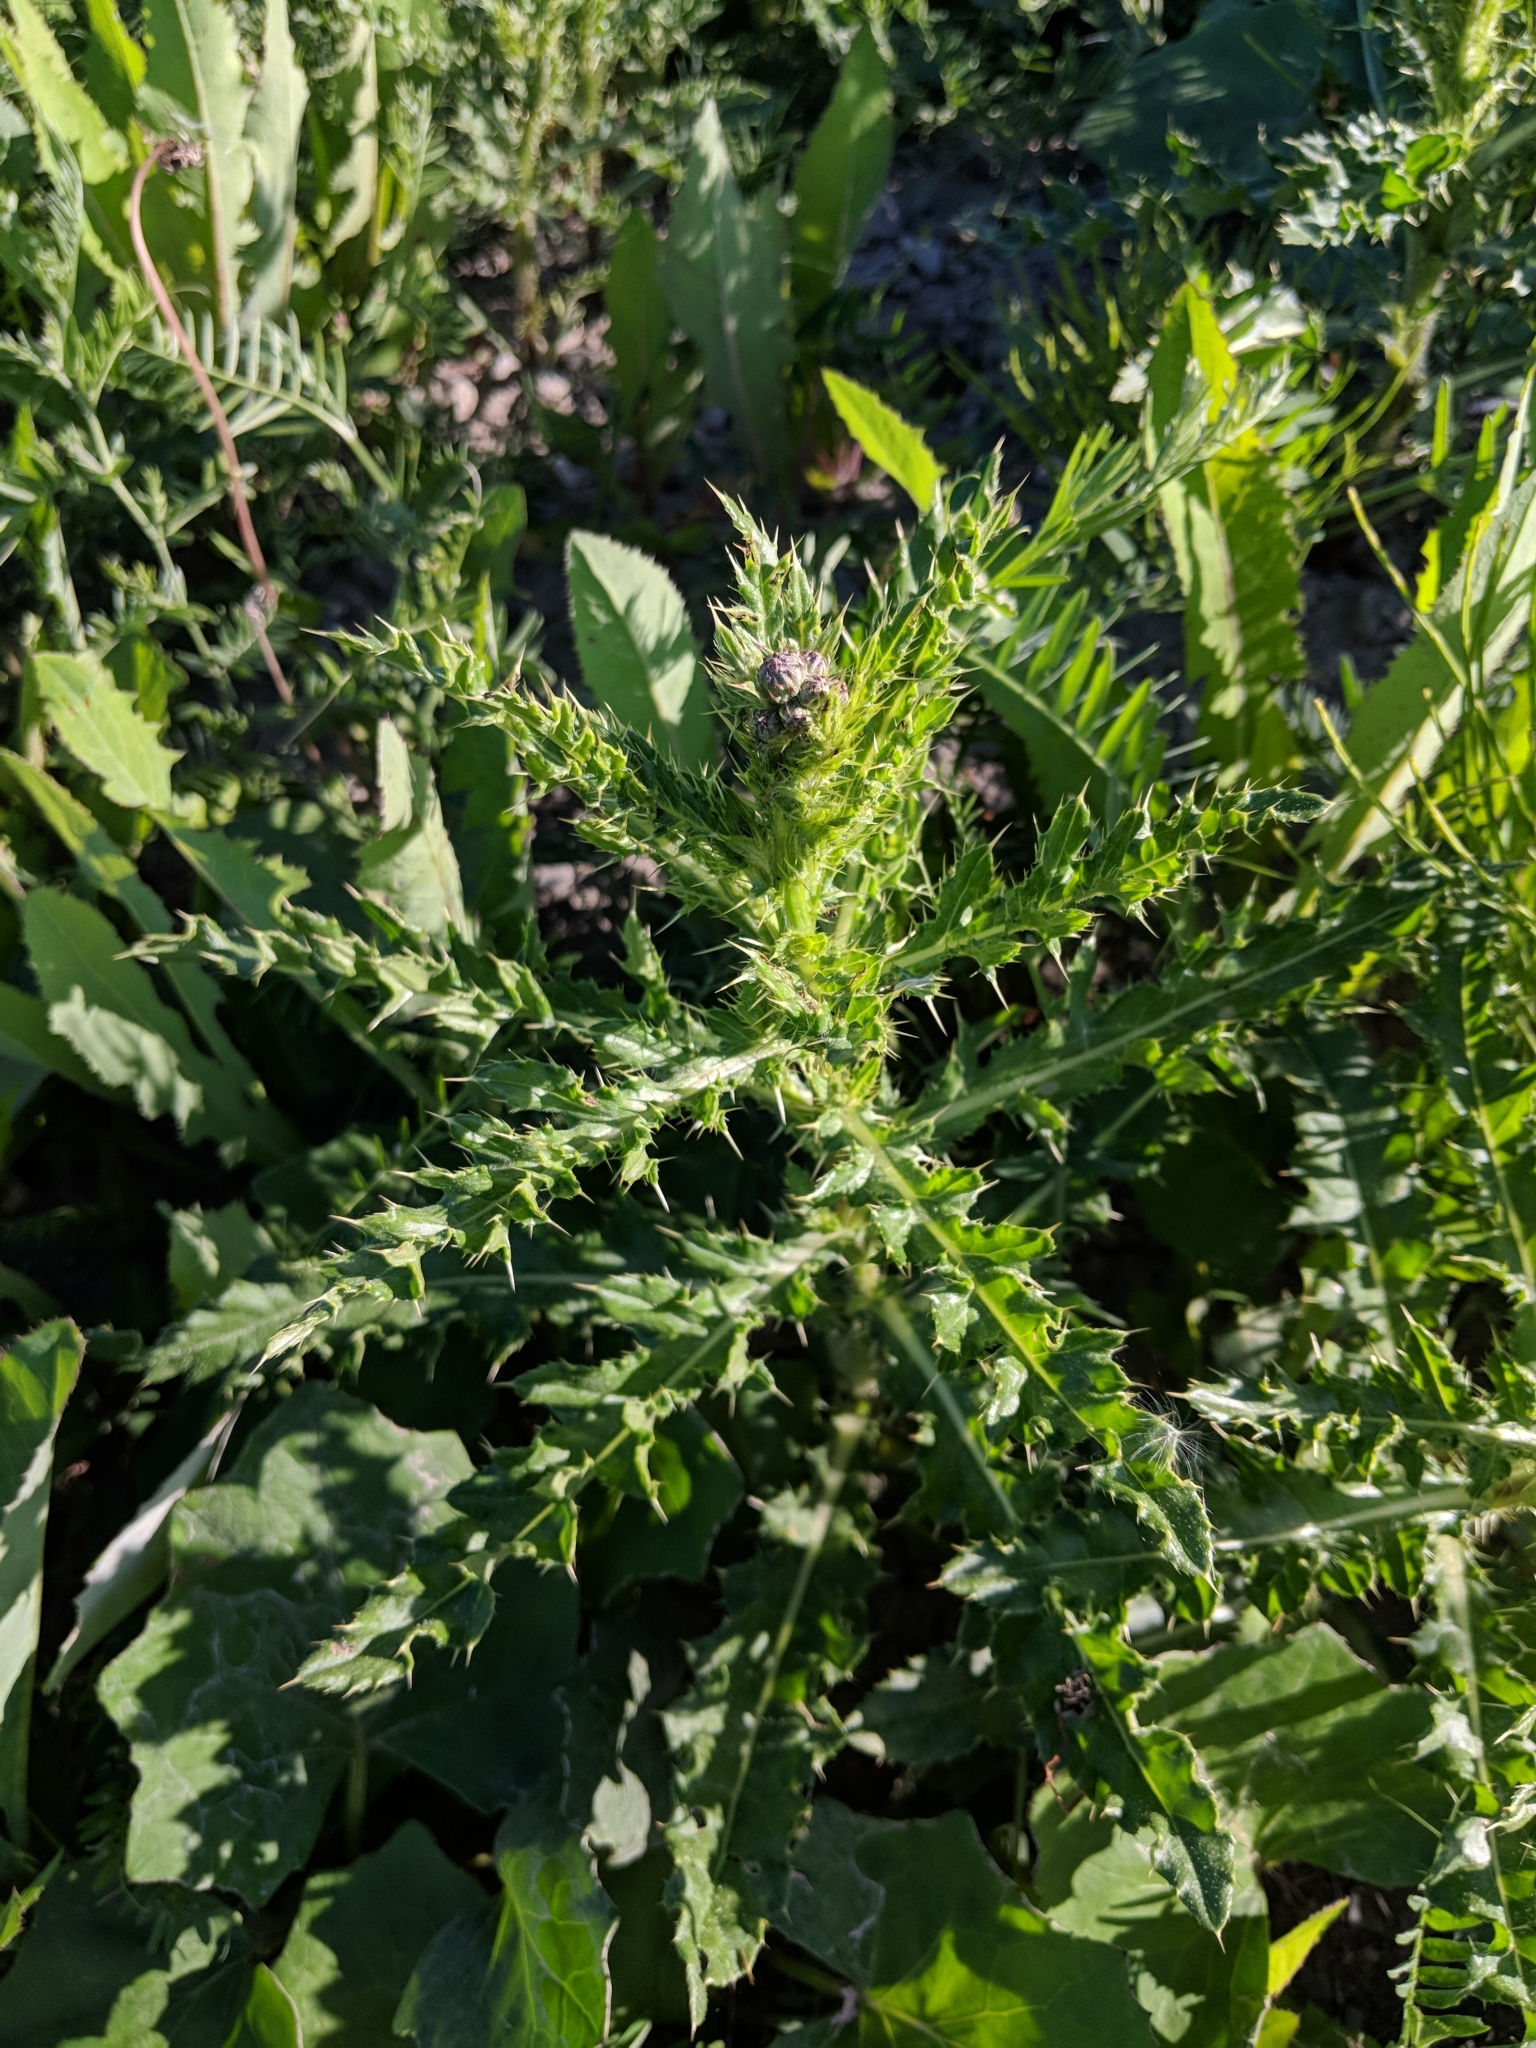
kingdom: Plantae
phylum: Tracheophyta
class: Magnoliopsida
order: Asterales
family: Asteraceae
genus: Cirsium
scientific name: Cirsium arvense
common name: Creeping thistle
